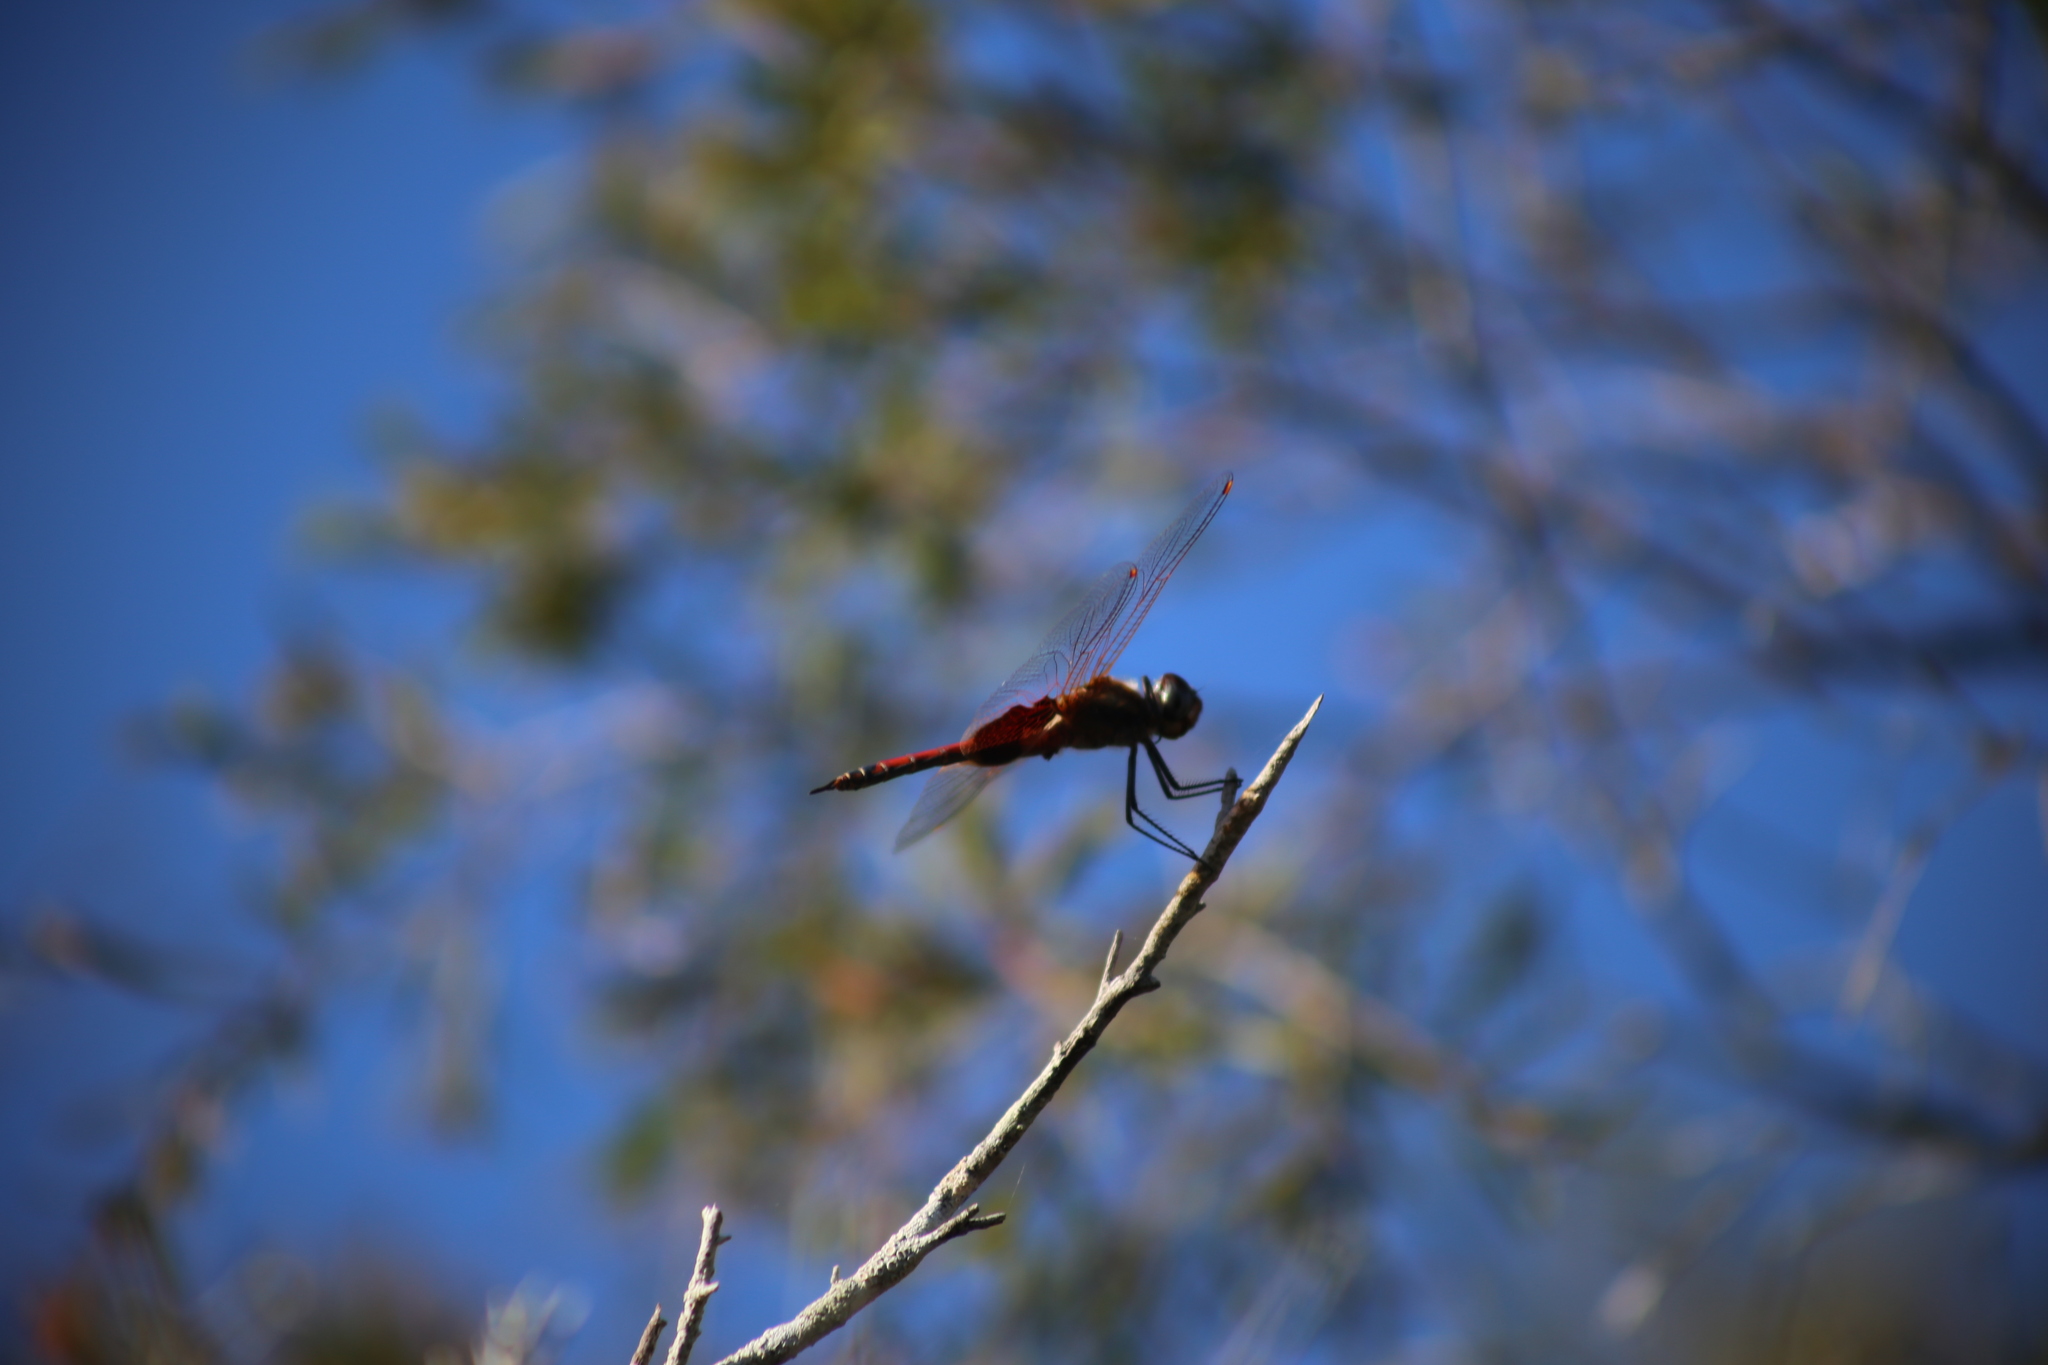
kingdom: Animalia
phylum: Arthropoda
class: Insecta
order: Odonata
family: Libellulidae
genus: Tramea
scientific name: Tramea loewii
